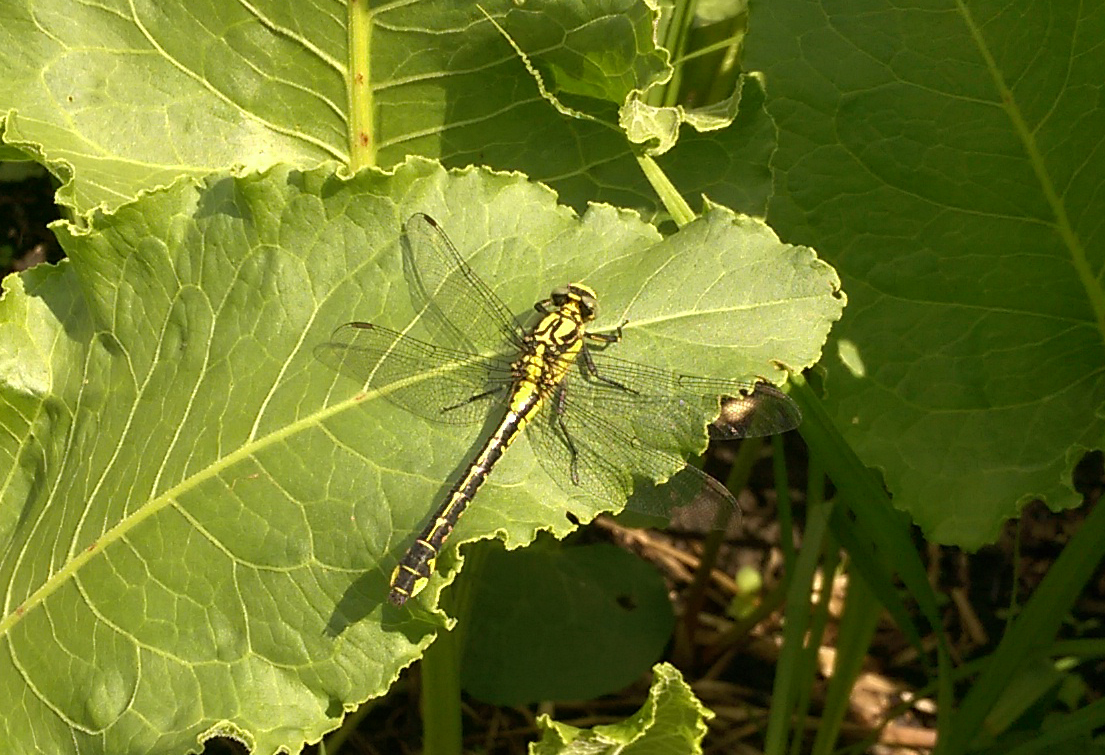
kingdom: Animalia
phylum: Arthropoda
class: Insecta
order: Odonata
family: Gomphidae
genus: Gomphus
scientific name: Gomphus vulgatissimus
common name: Club-tailed dragonfly
